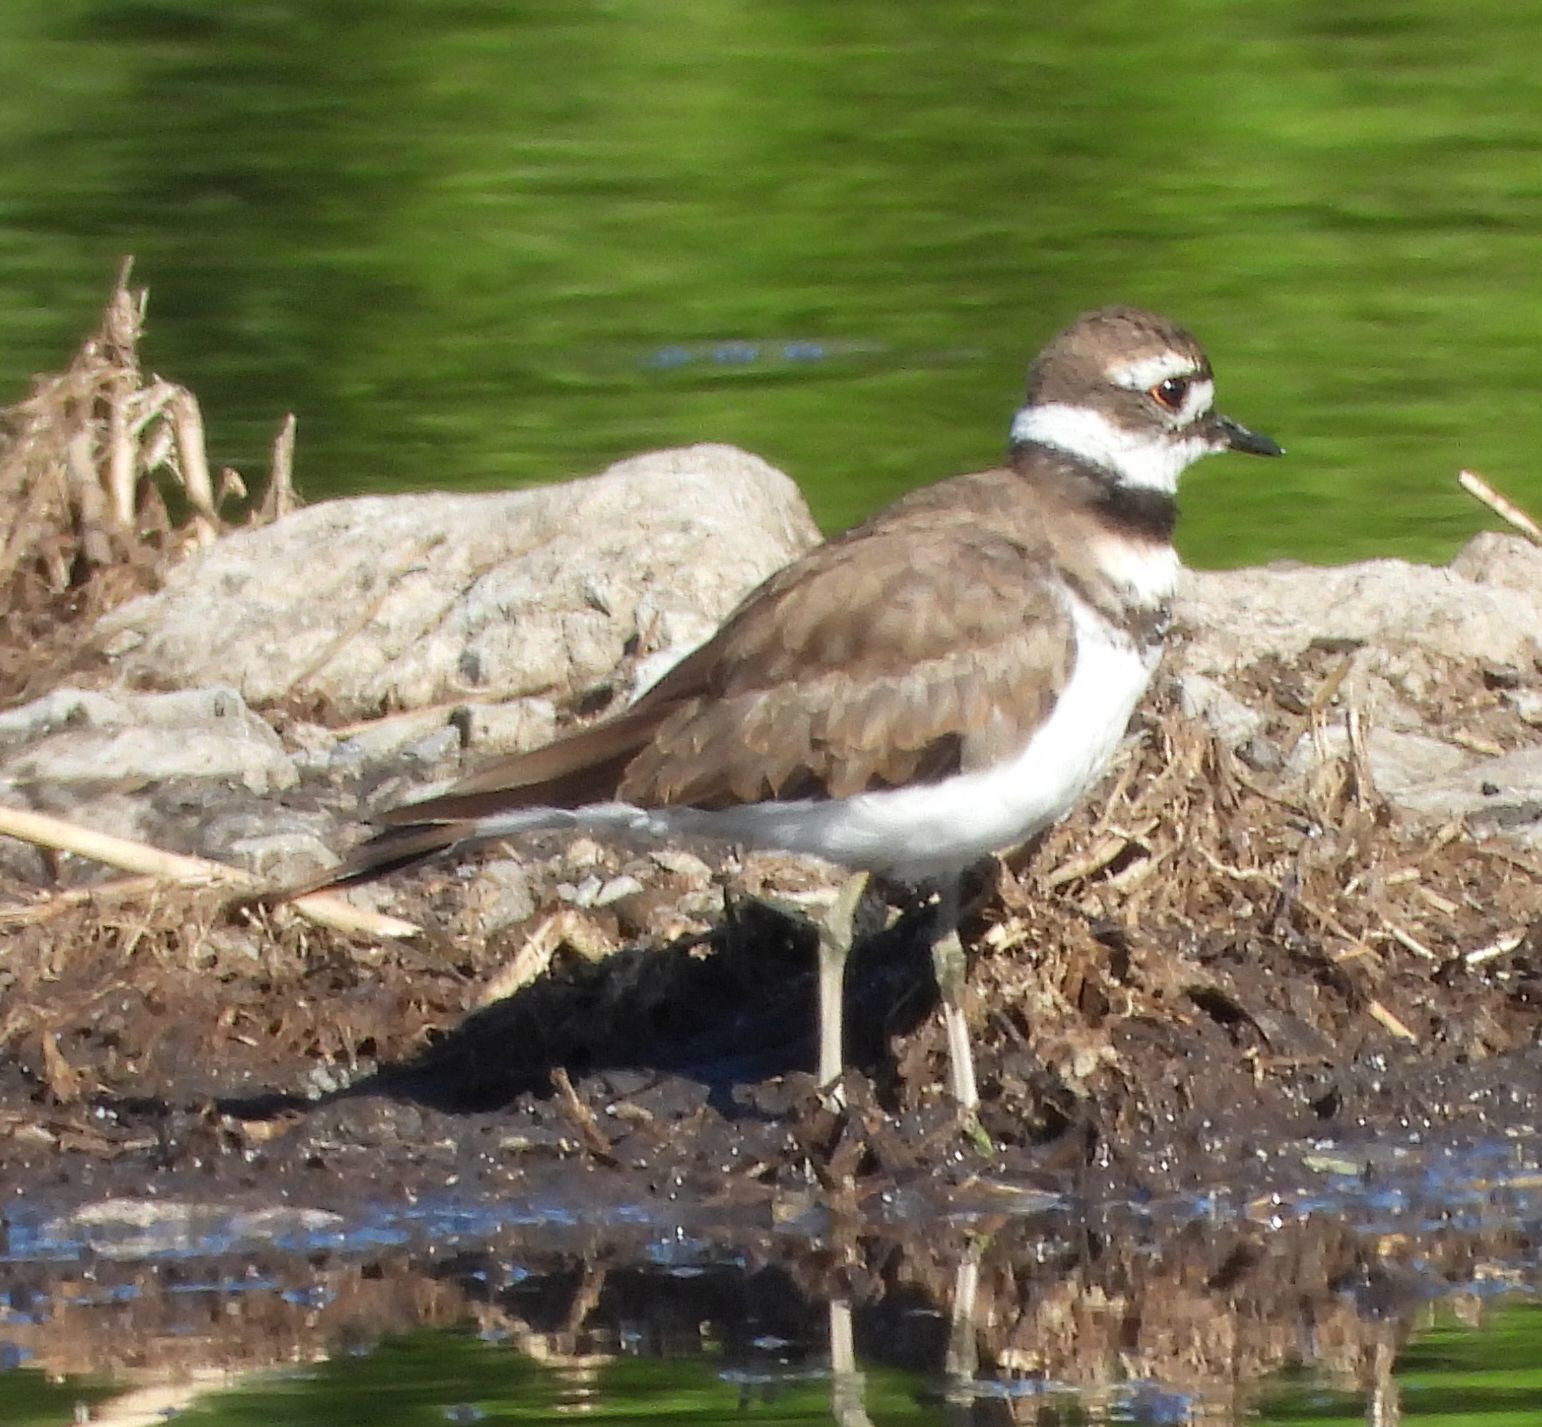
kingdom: Animalia
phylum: Chordata
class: Aves
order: Charadriiformes
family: Charadriidae
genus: Charadrius
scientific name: Charadrius vociferus
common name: Killdeer
